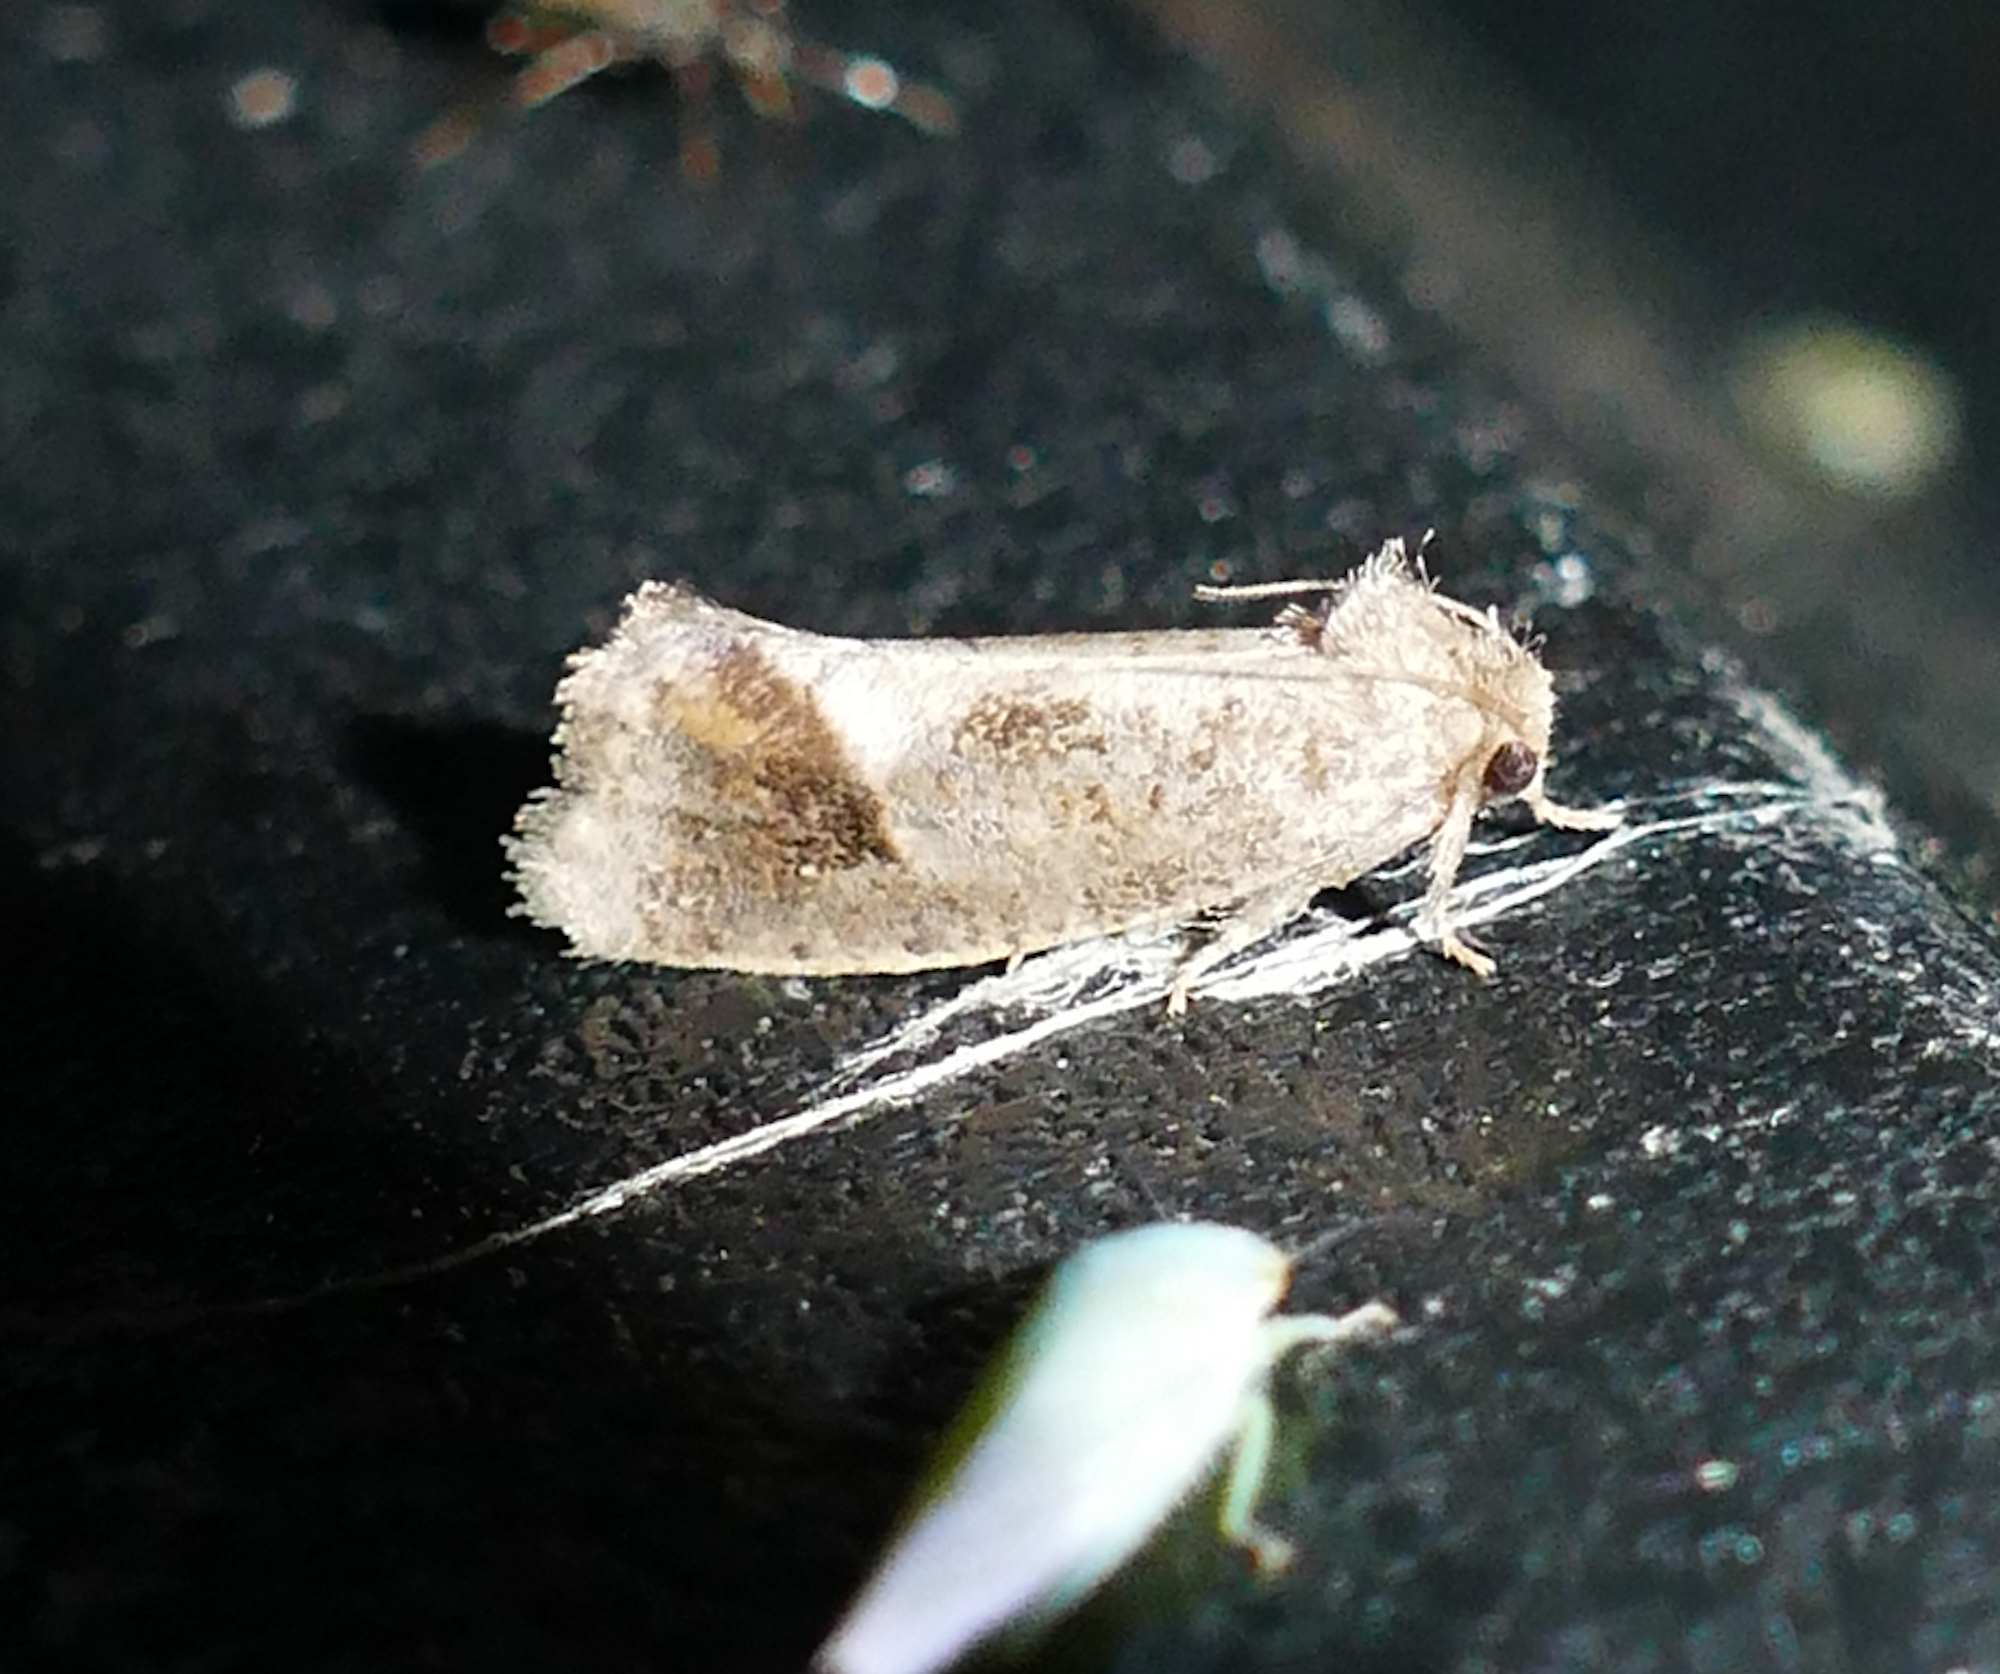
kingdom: Animalia
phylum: Arthropoda
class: Insecta
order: Lepidoptera
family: Tineidae
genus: Acrolophus
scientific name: Acrolophus texanella
